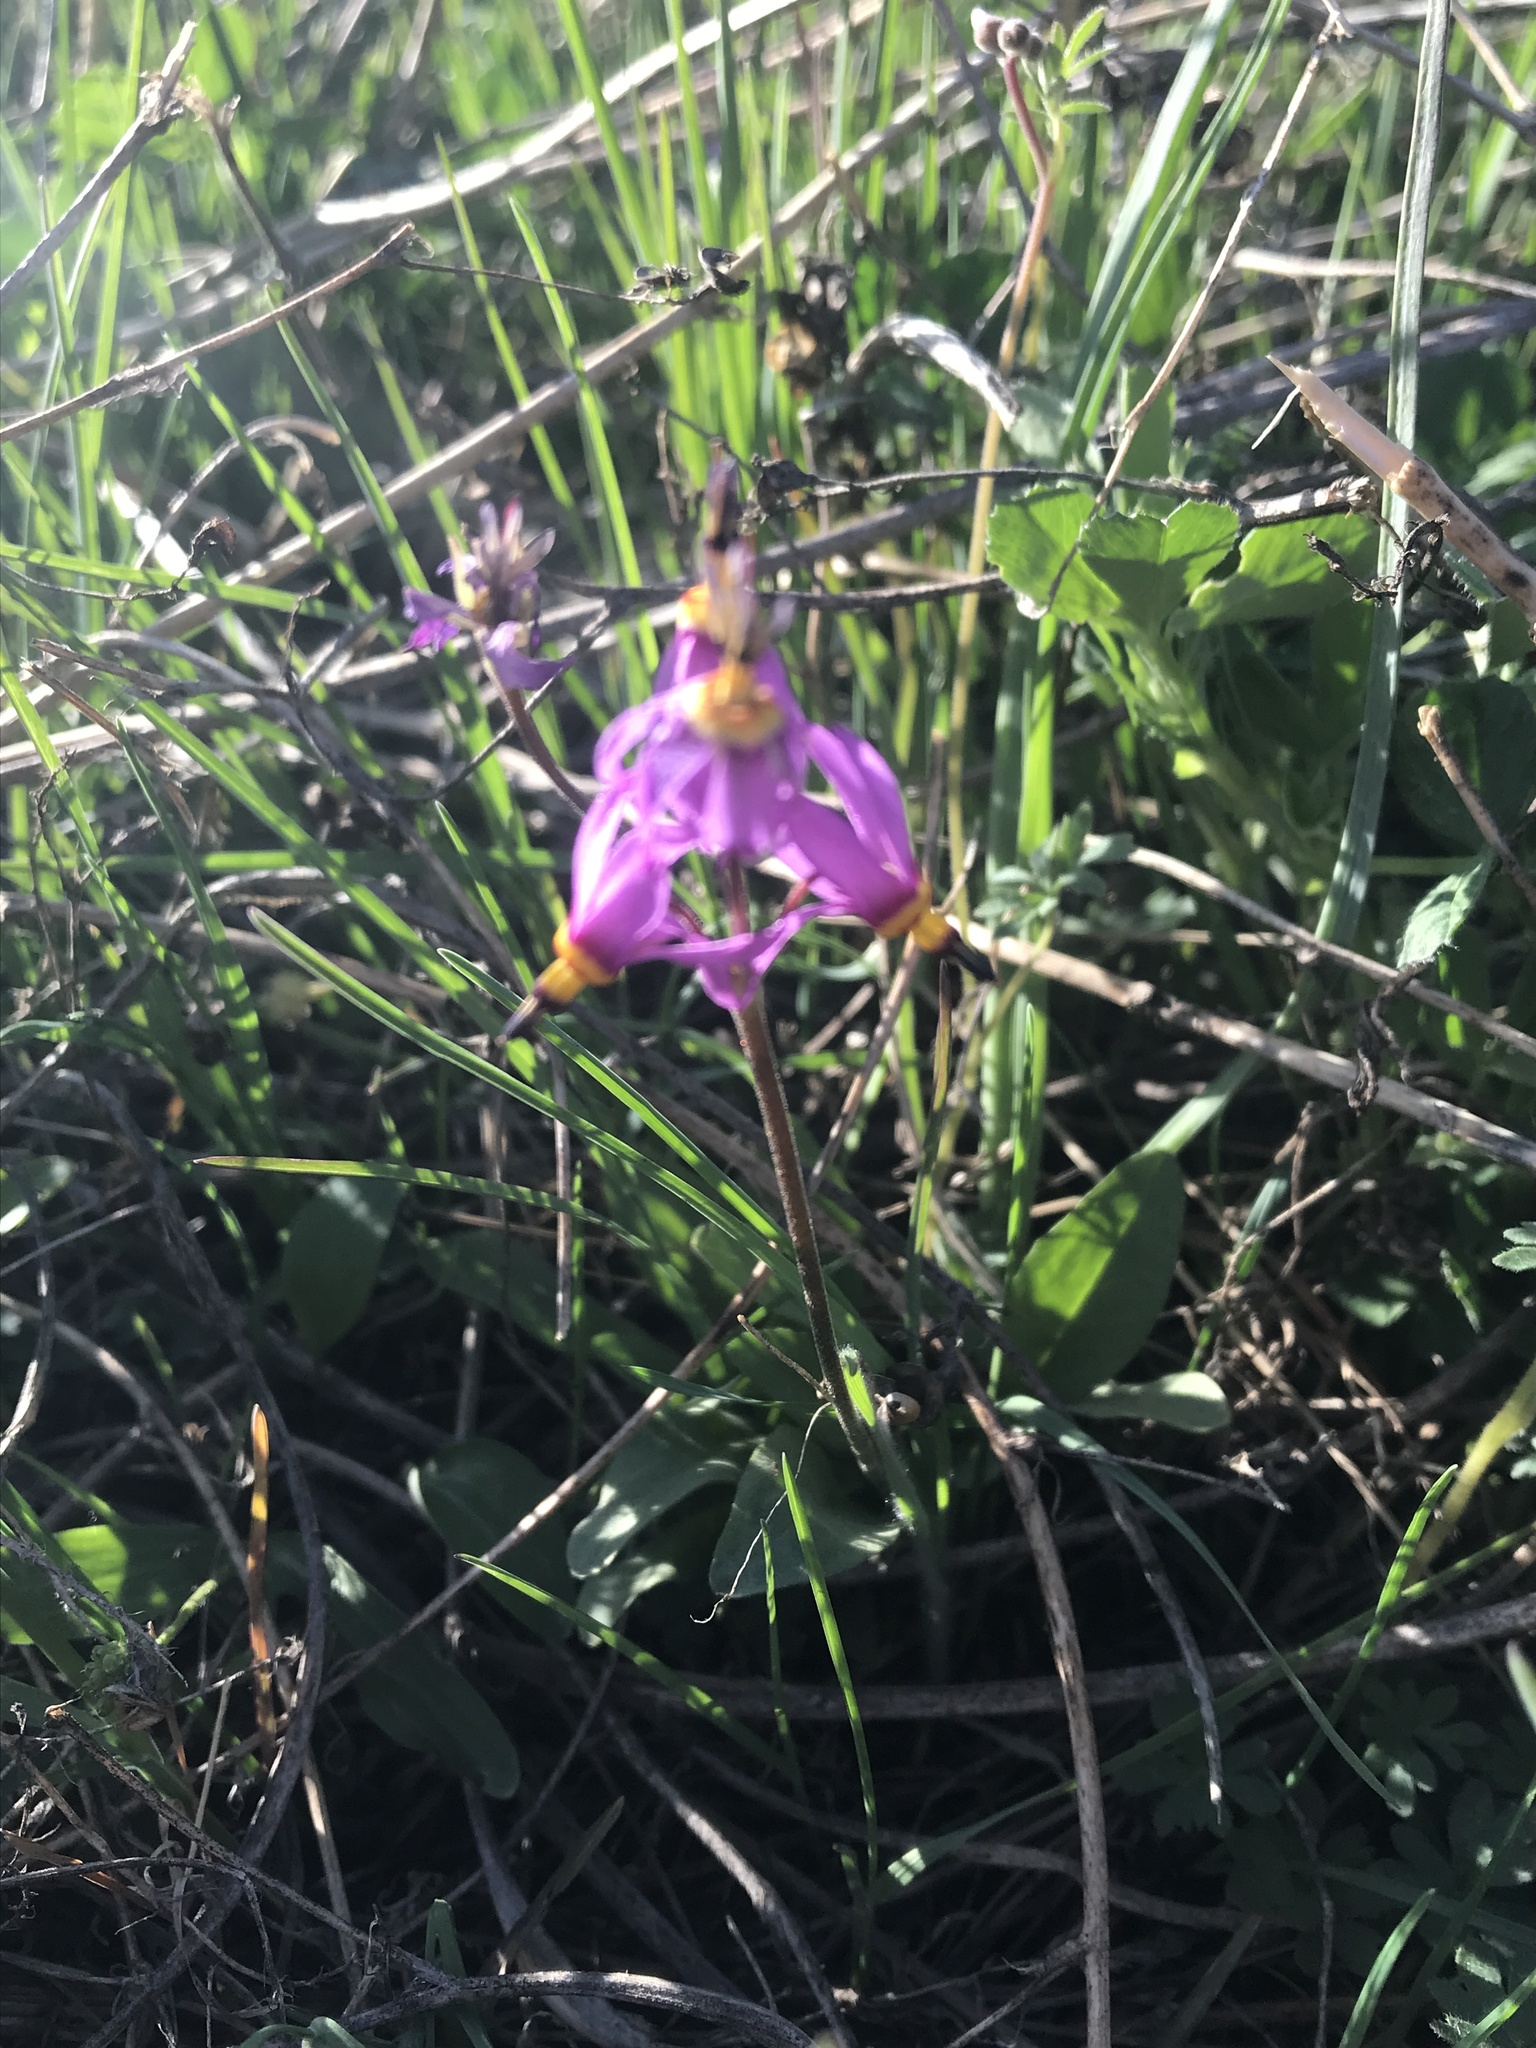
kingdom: Plantae
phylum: Tracheophyta
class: Magnoliopsida
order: Ericales
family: Primulaceae
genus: Dodecatheon
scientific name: Dodecatheon pulchellum
